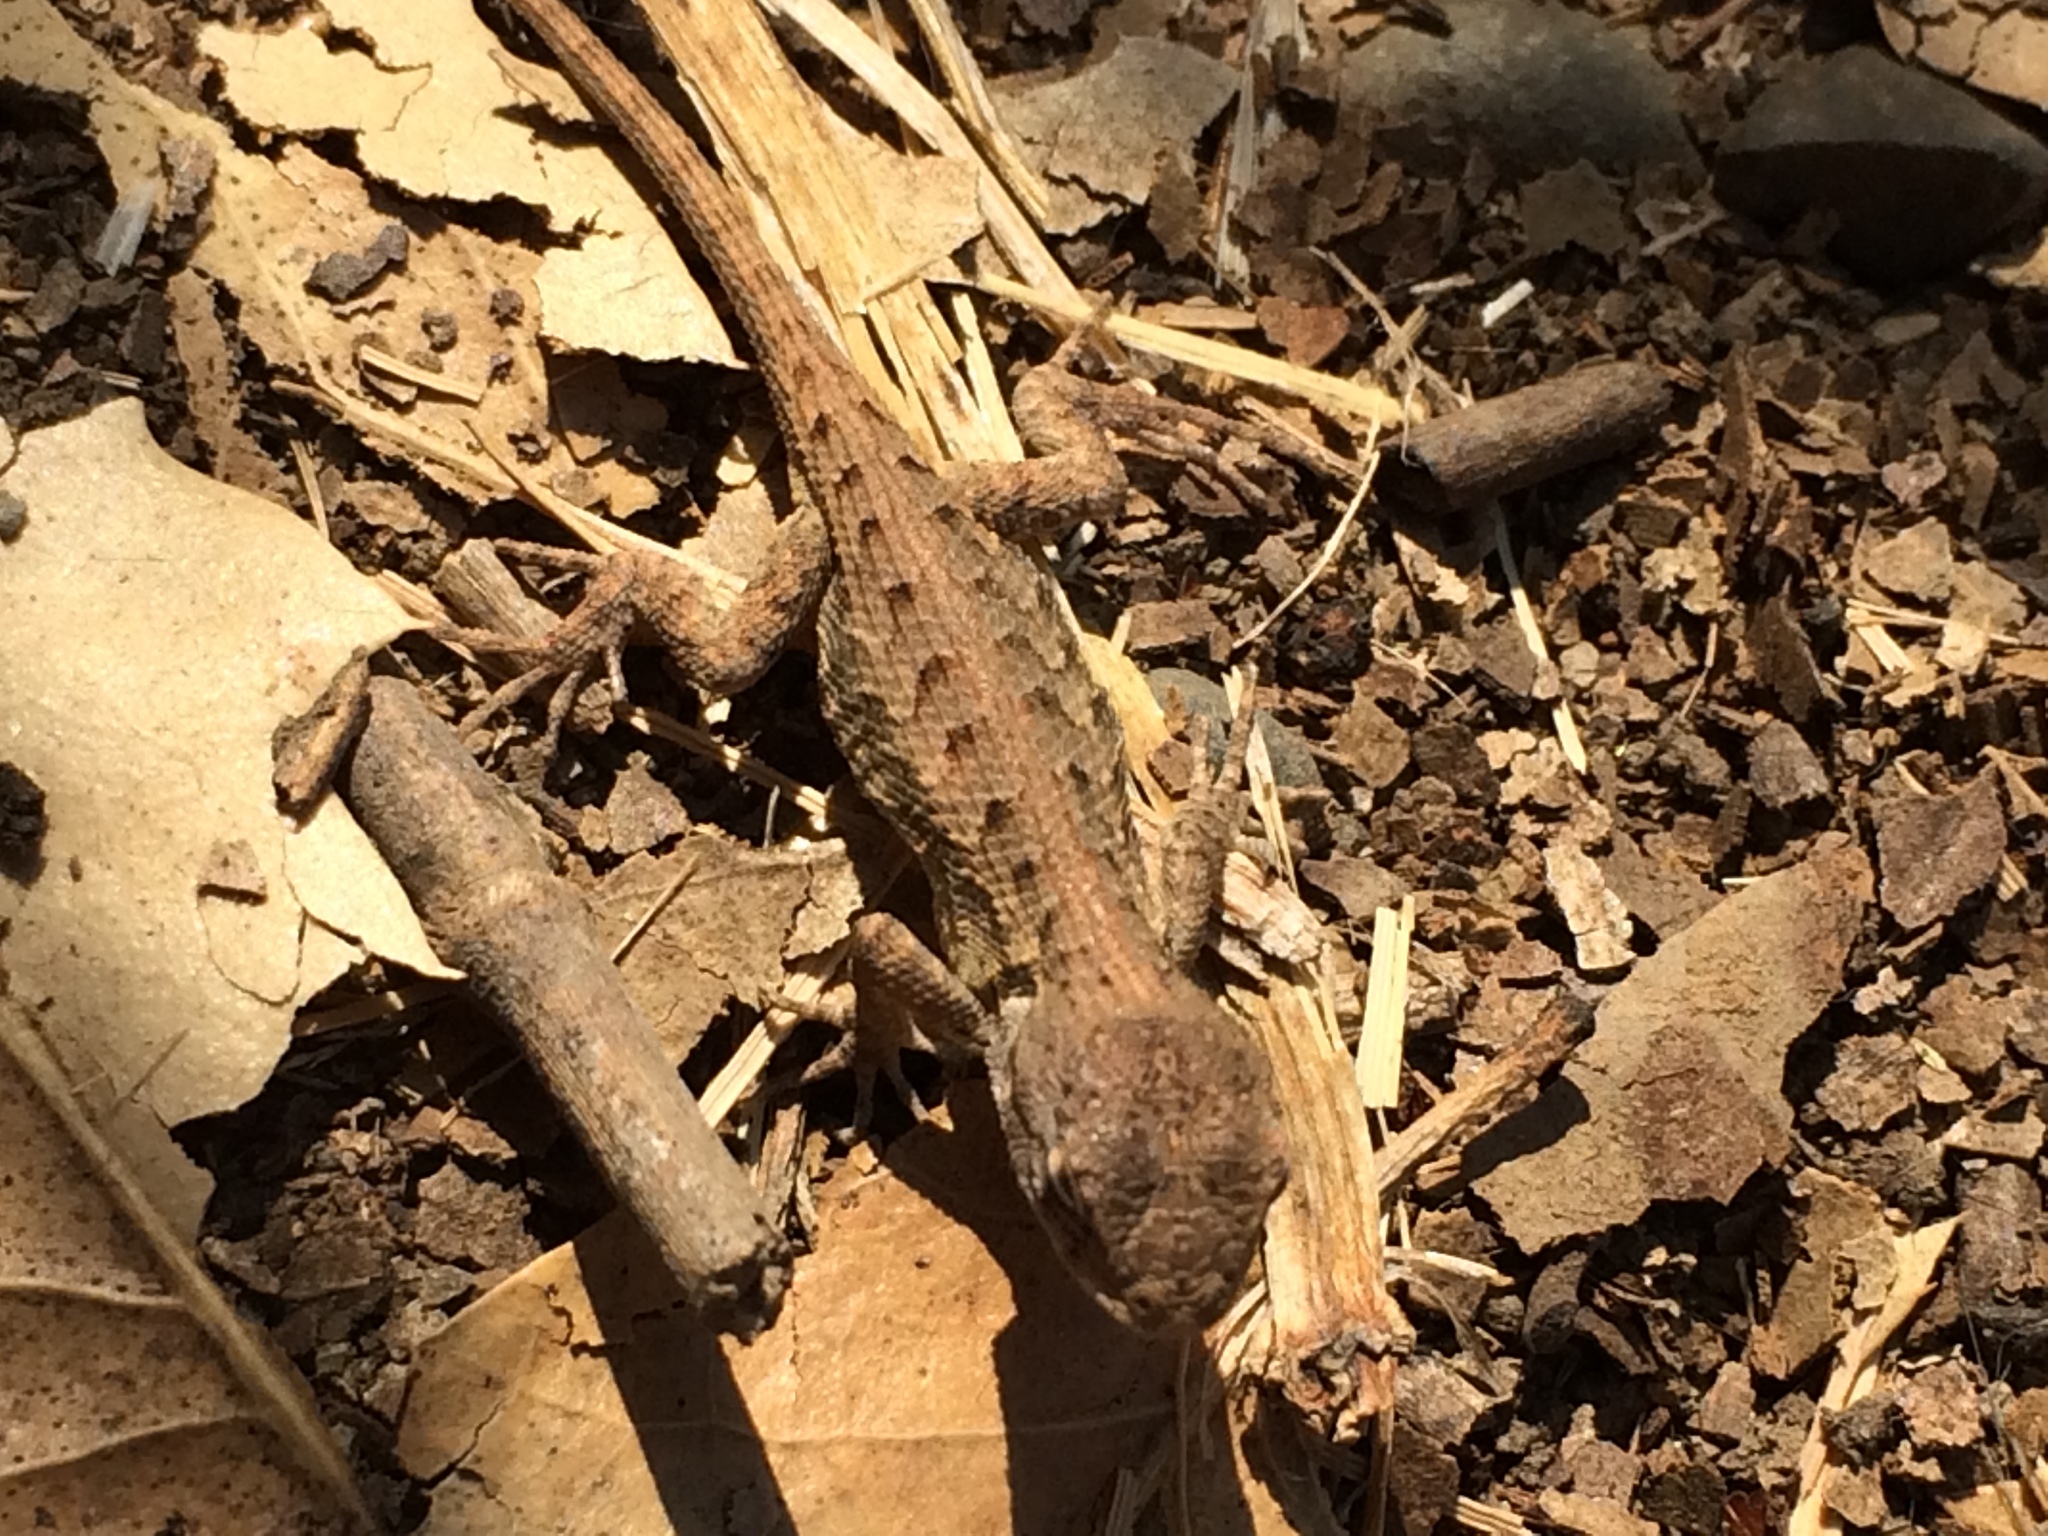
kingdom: Animalia
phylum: Chordata
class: Squamata
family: Phrynosomatidae
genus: Sceloporus
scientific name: Sceloporus occidentalis
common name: Western fence lizard
